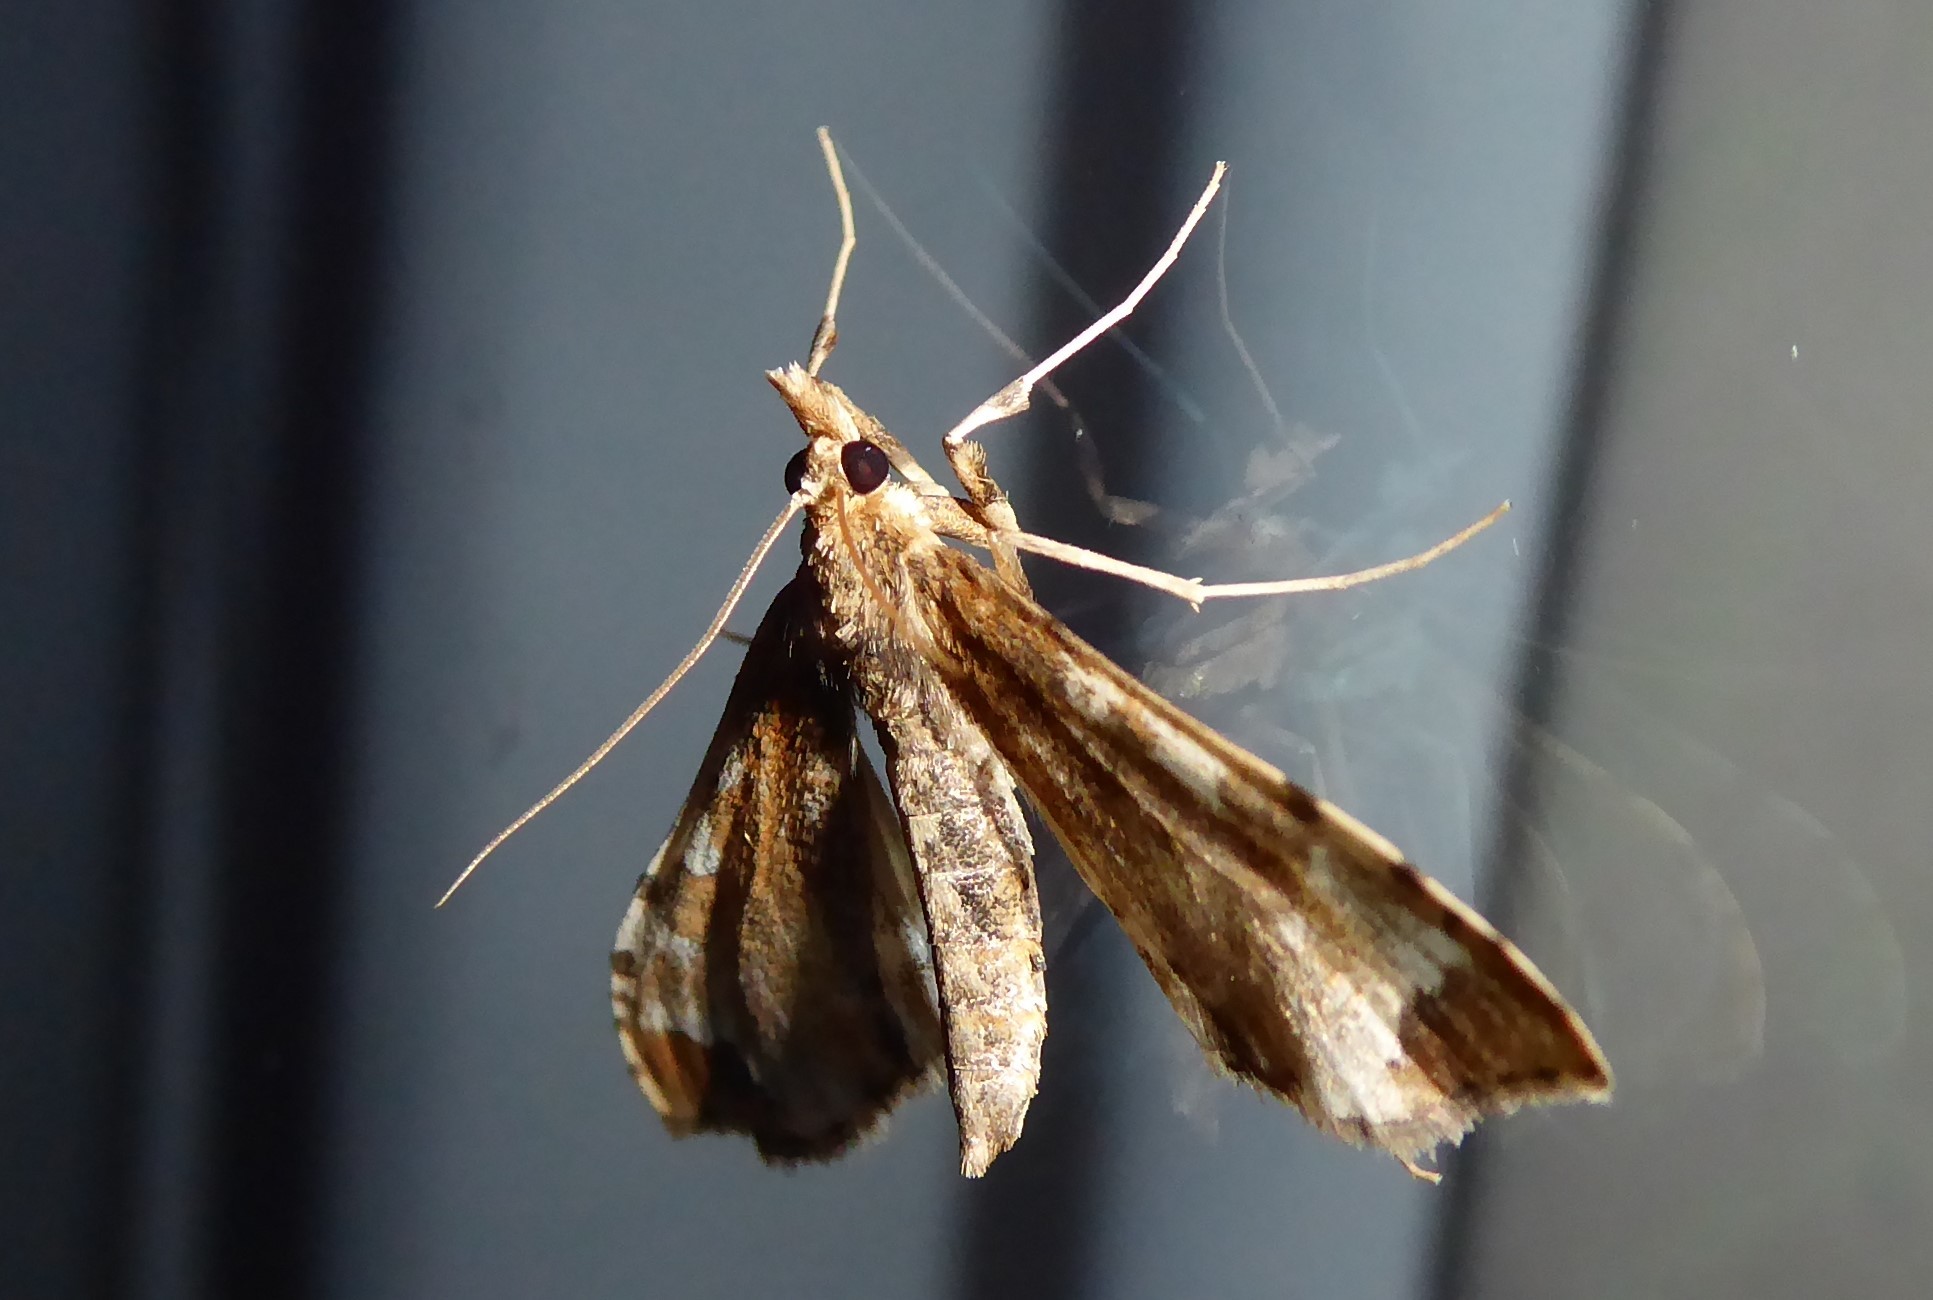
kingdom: Animalia
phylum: Arthropoda
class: Insecta
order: Lepidoptera
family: Crambidae
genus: Sceliodes
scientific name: Sceliodes cordalis
